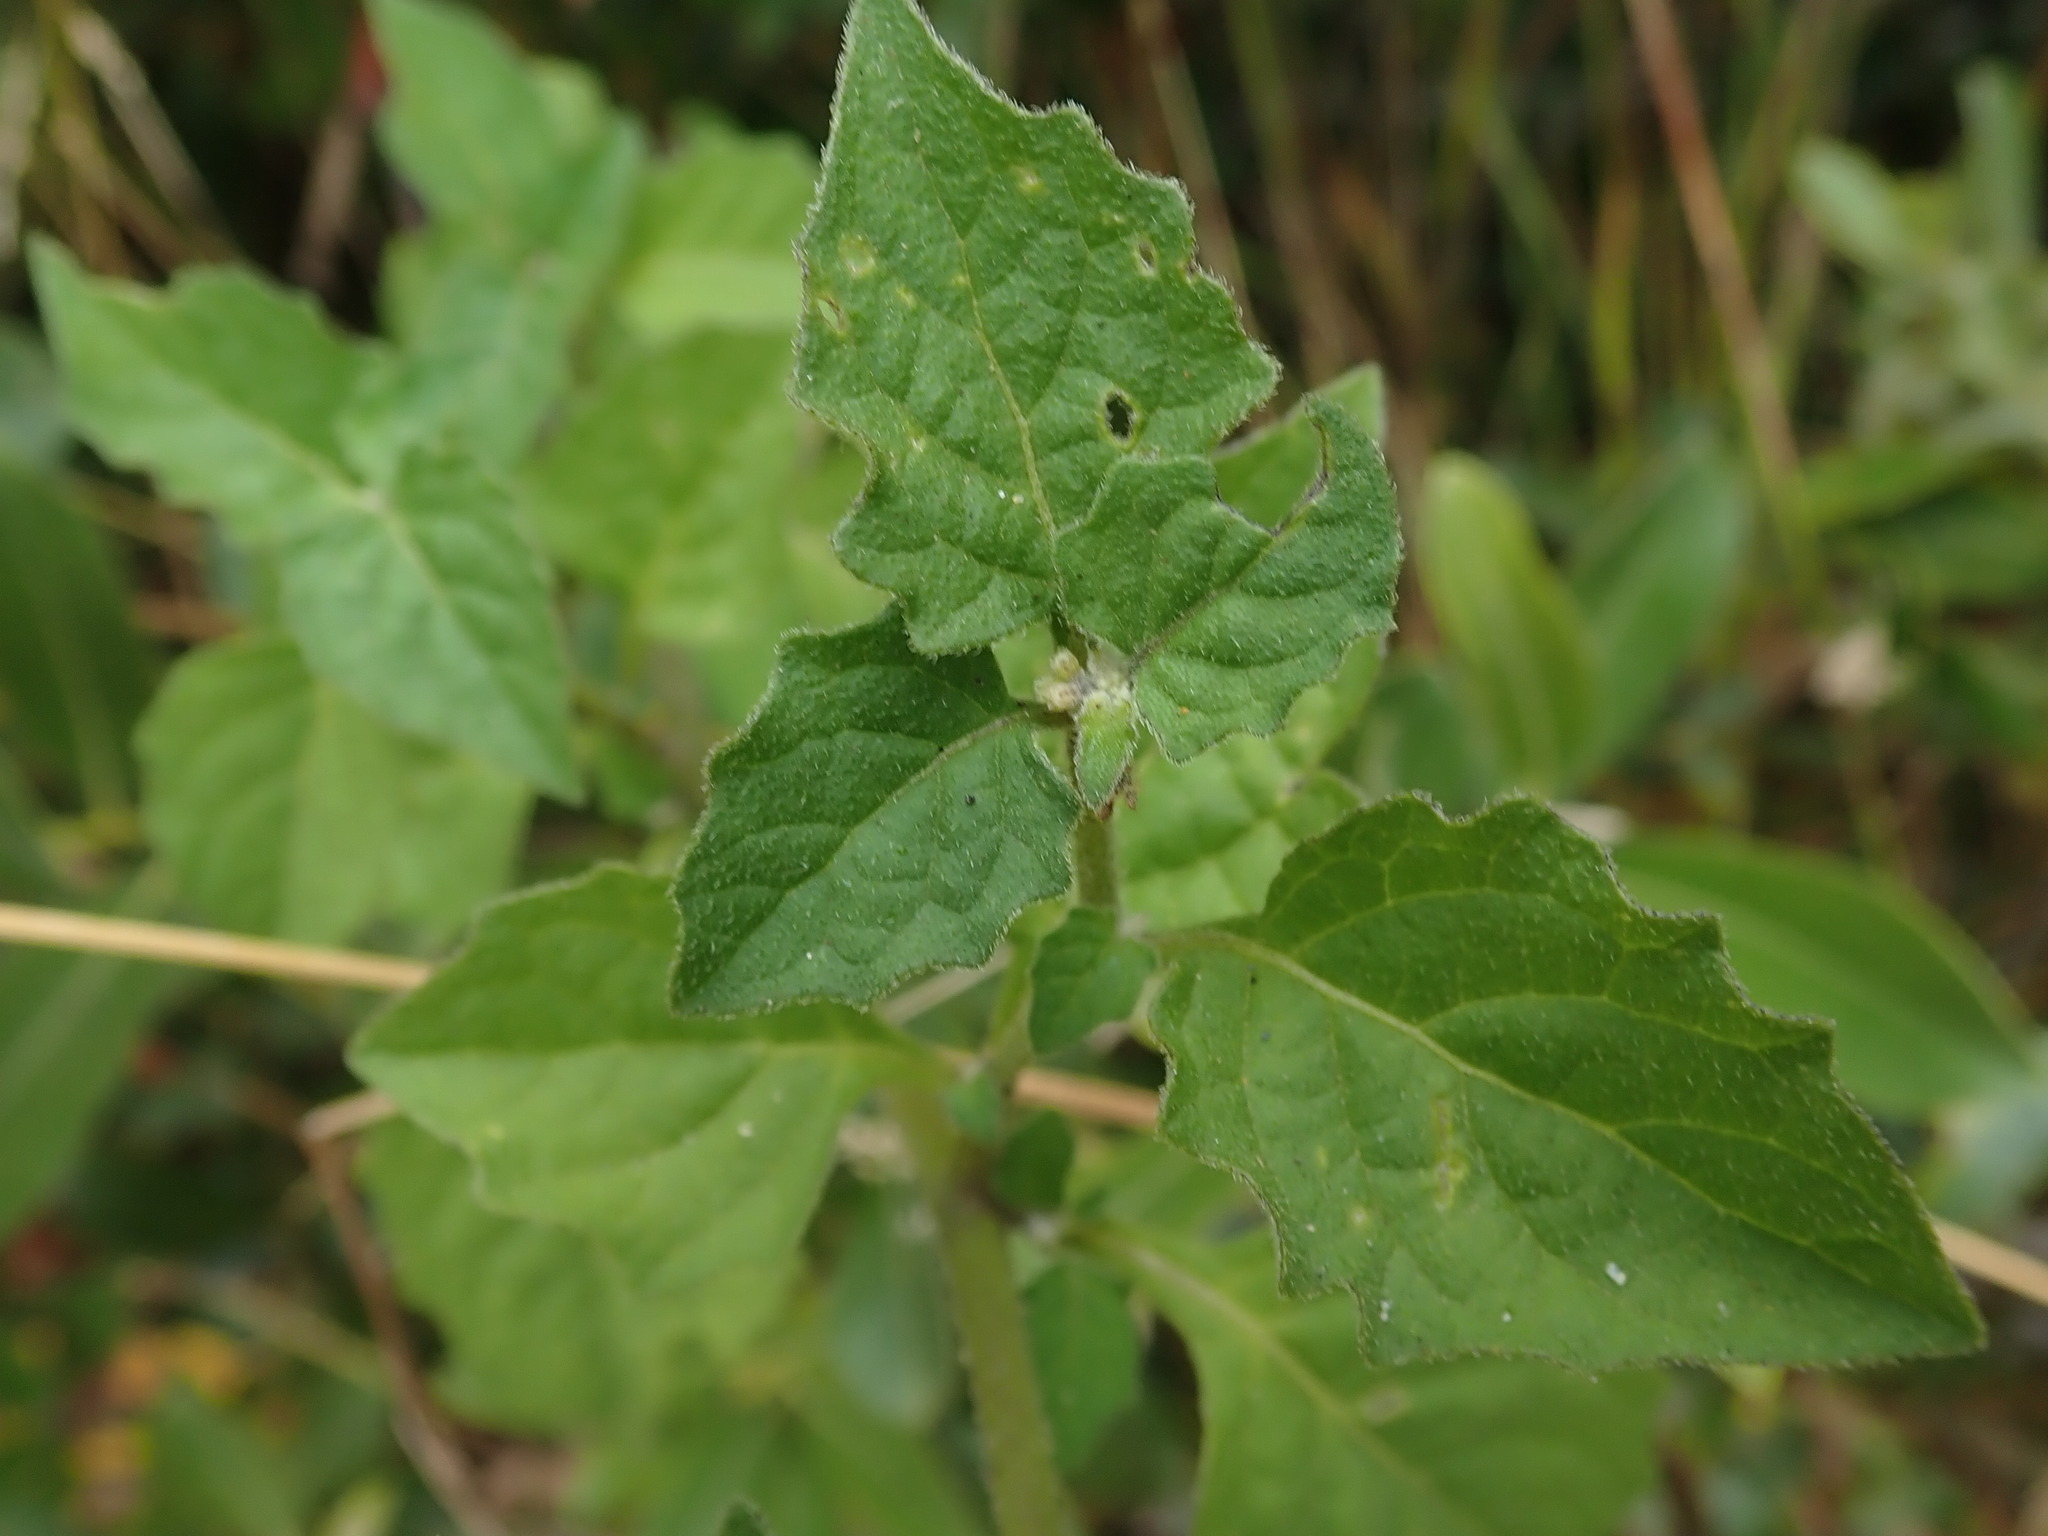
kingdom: Plantae
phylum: Tracheophyta
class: Magnoliopsida
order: Solanales
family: Solanaceae
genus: Solanum
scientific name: Solanum douglasii
